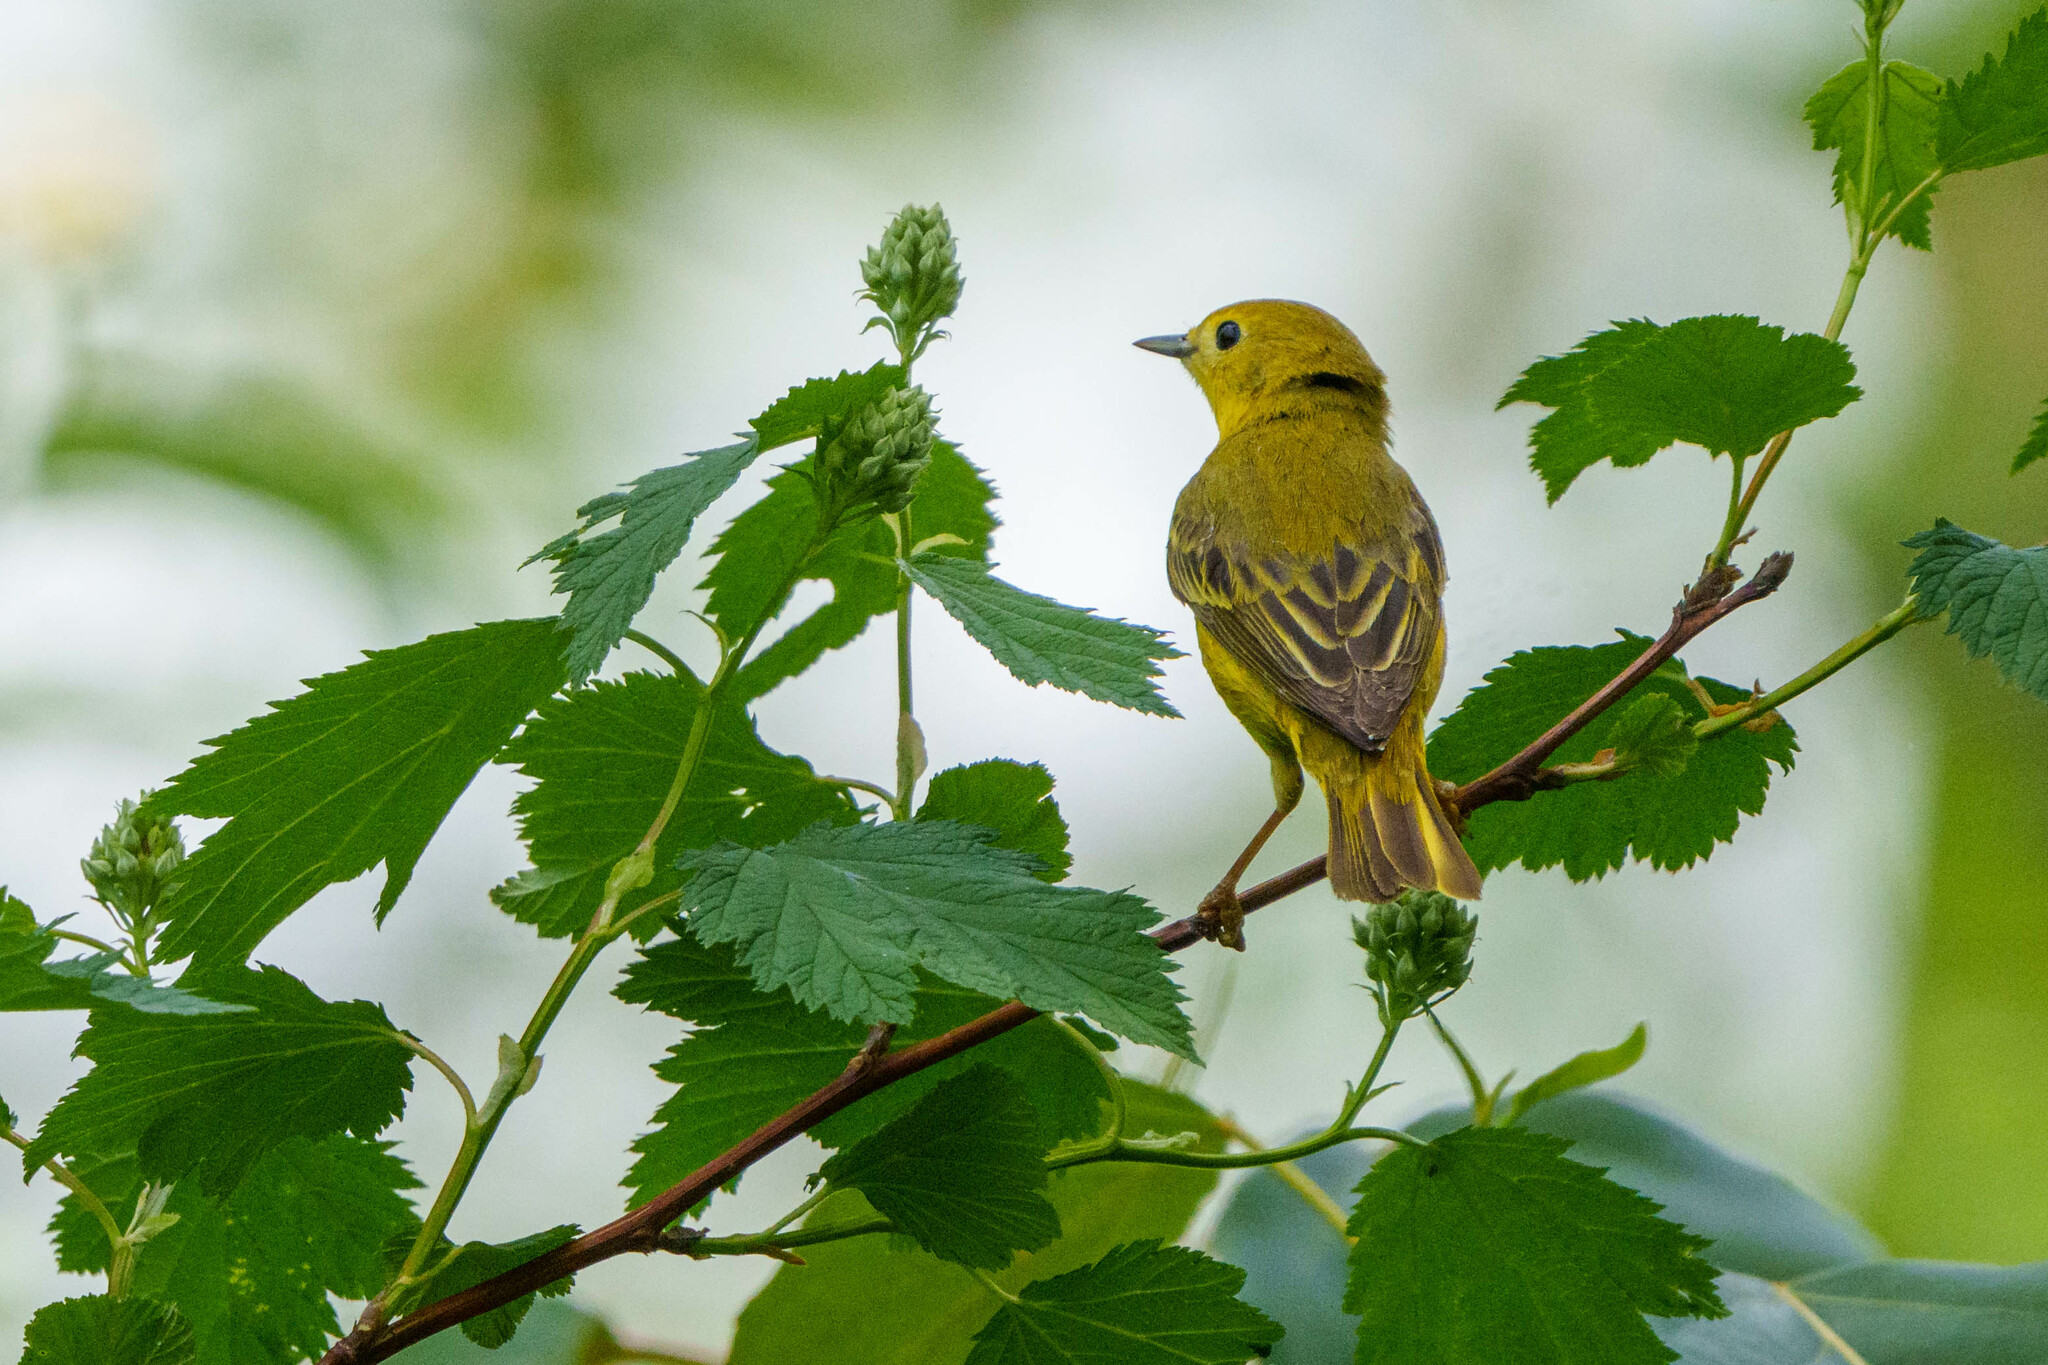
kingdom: Animalia
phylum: Chordata
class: Aves
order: Passeriformes
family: Parulidae
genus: Setophaga
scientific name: Setophaga petechia
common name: Yellow warbler
